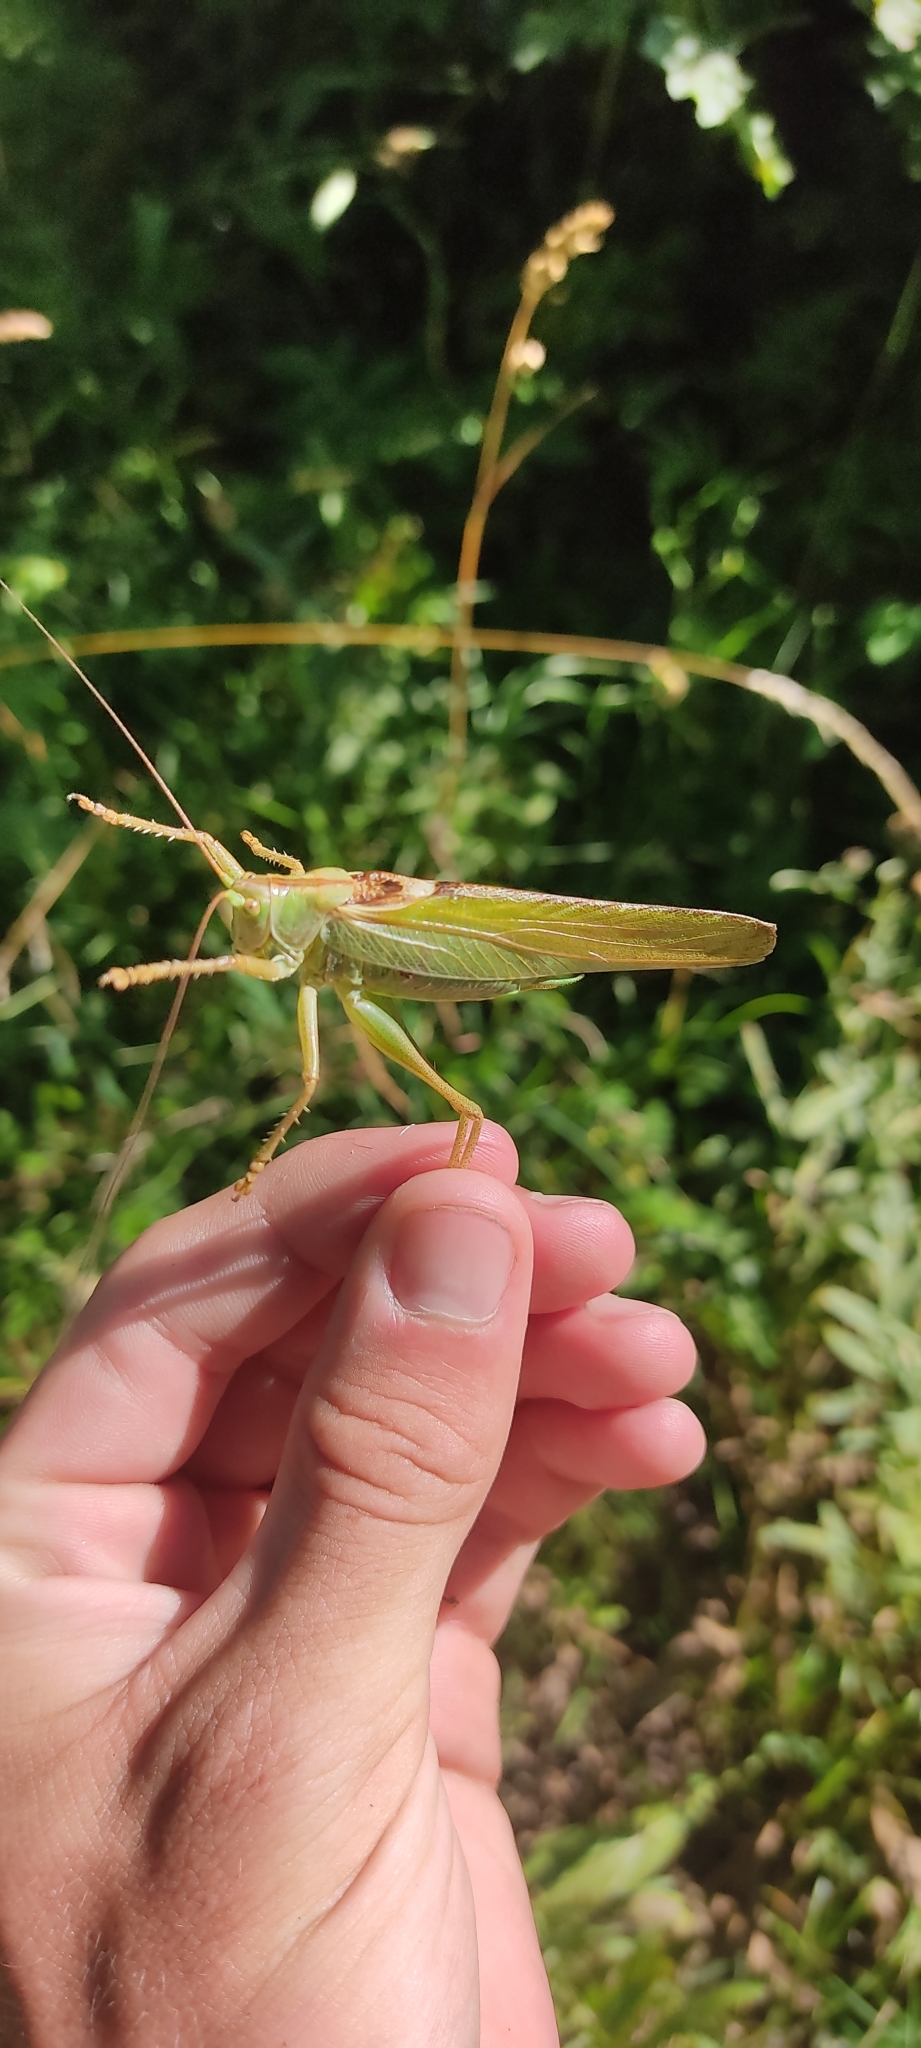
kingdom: Animalia
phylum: Arthropoda
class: Insecta
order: Orthoptera
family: Tettigoniidae
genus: Tettigonia
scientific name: Tettigonia viridissima
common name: Great green bush-cricket
